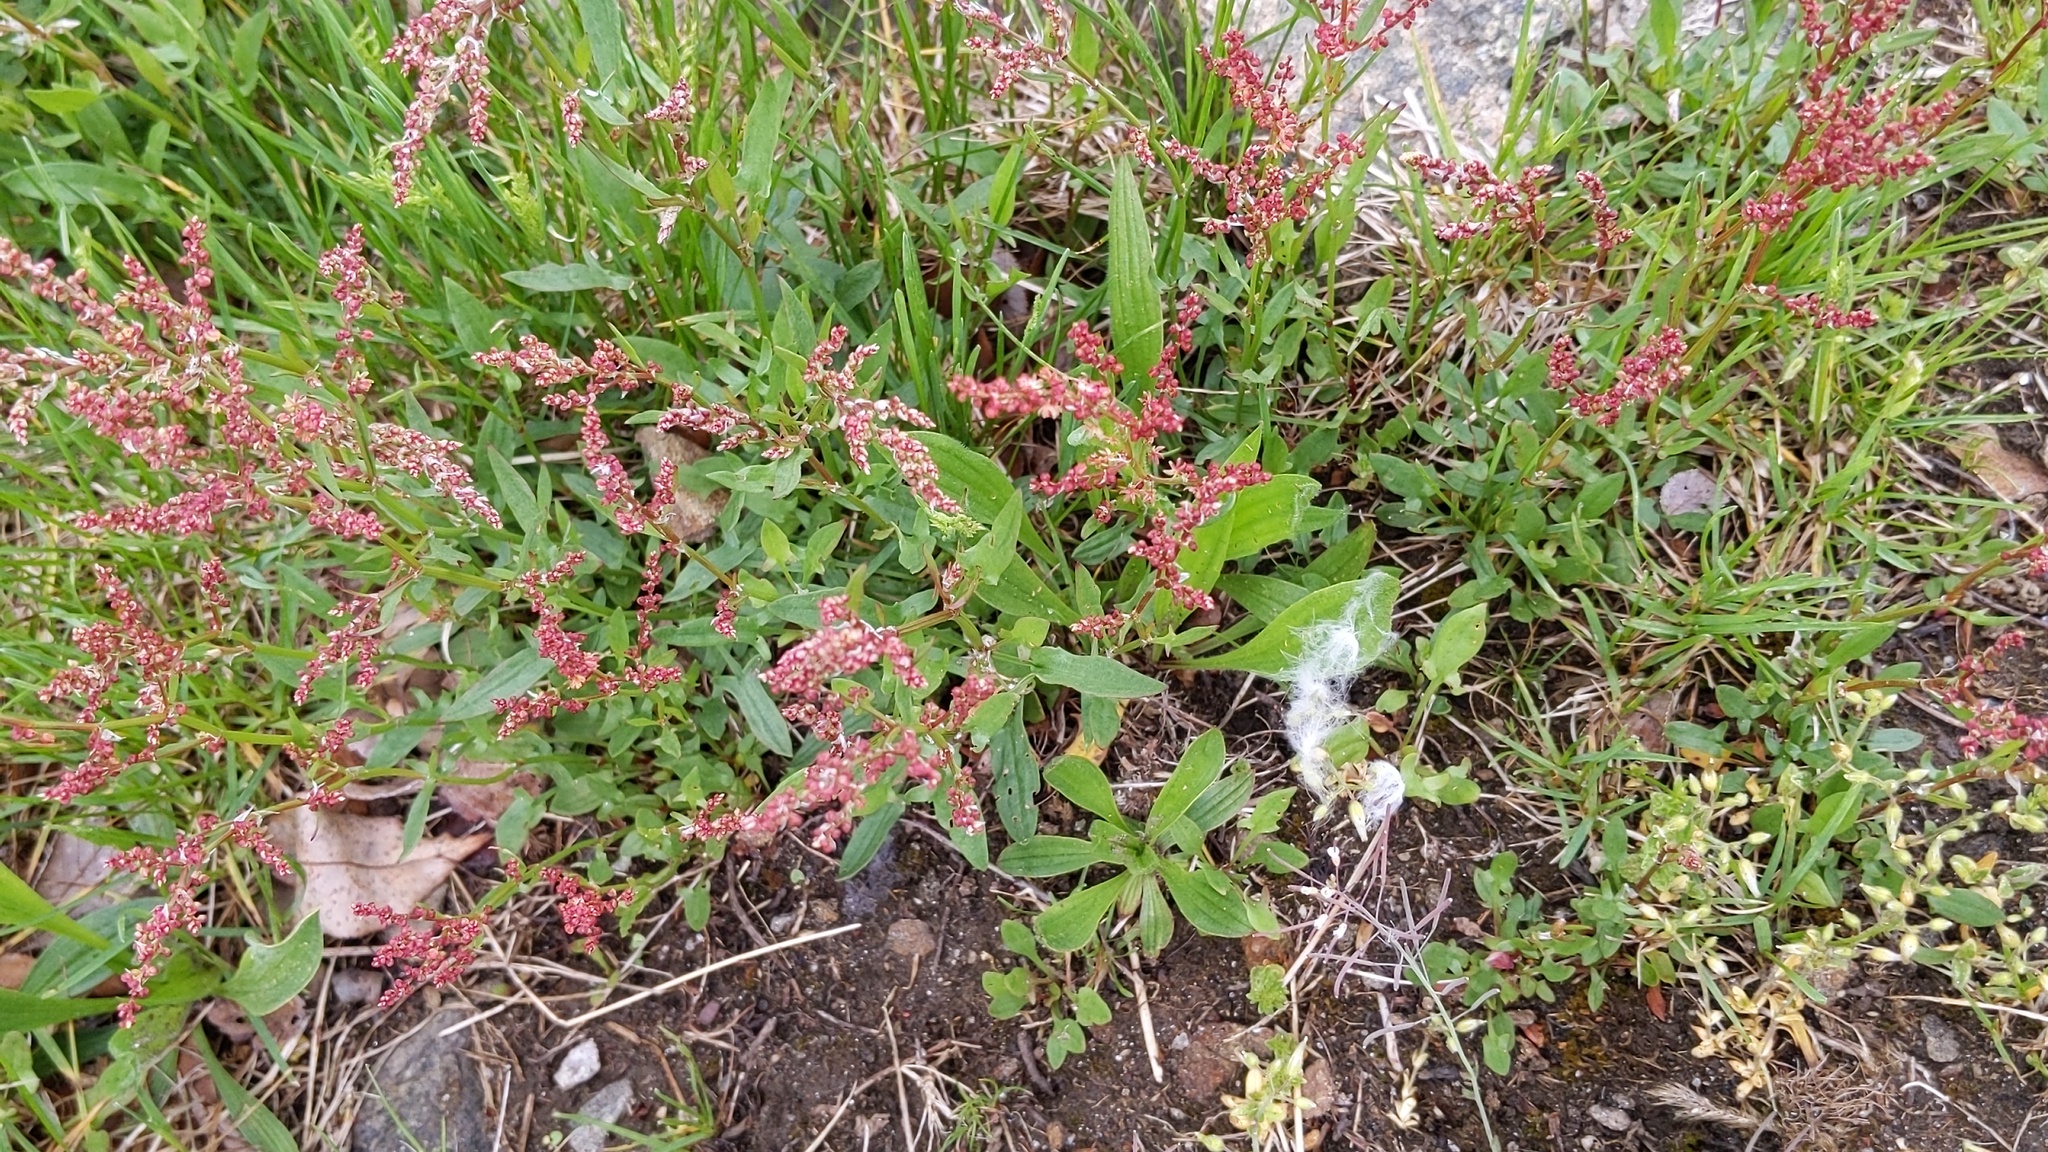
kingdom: Plantae
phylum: Tracheophyta
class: Magnoliopsida
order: Caryophyllales
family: Polygonaceae
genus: Rumex
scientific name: Rumex acetosella
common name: Common sheep sorrel
